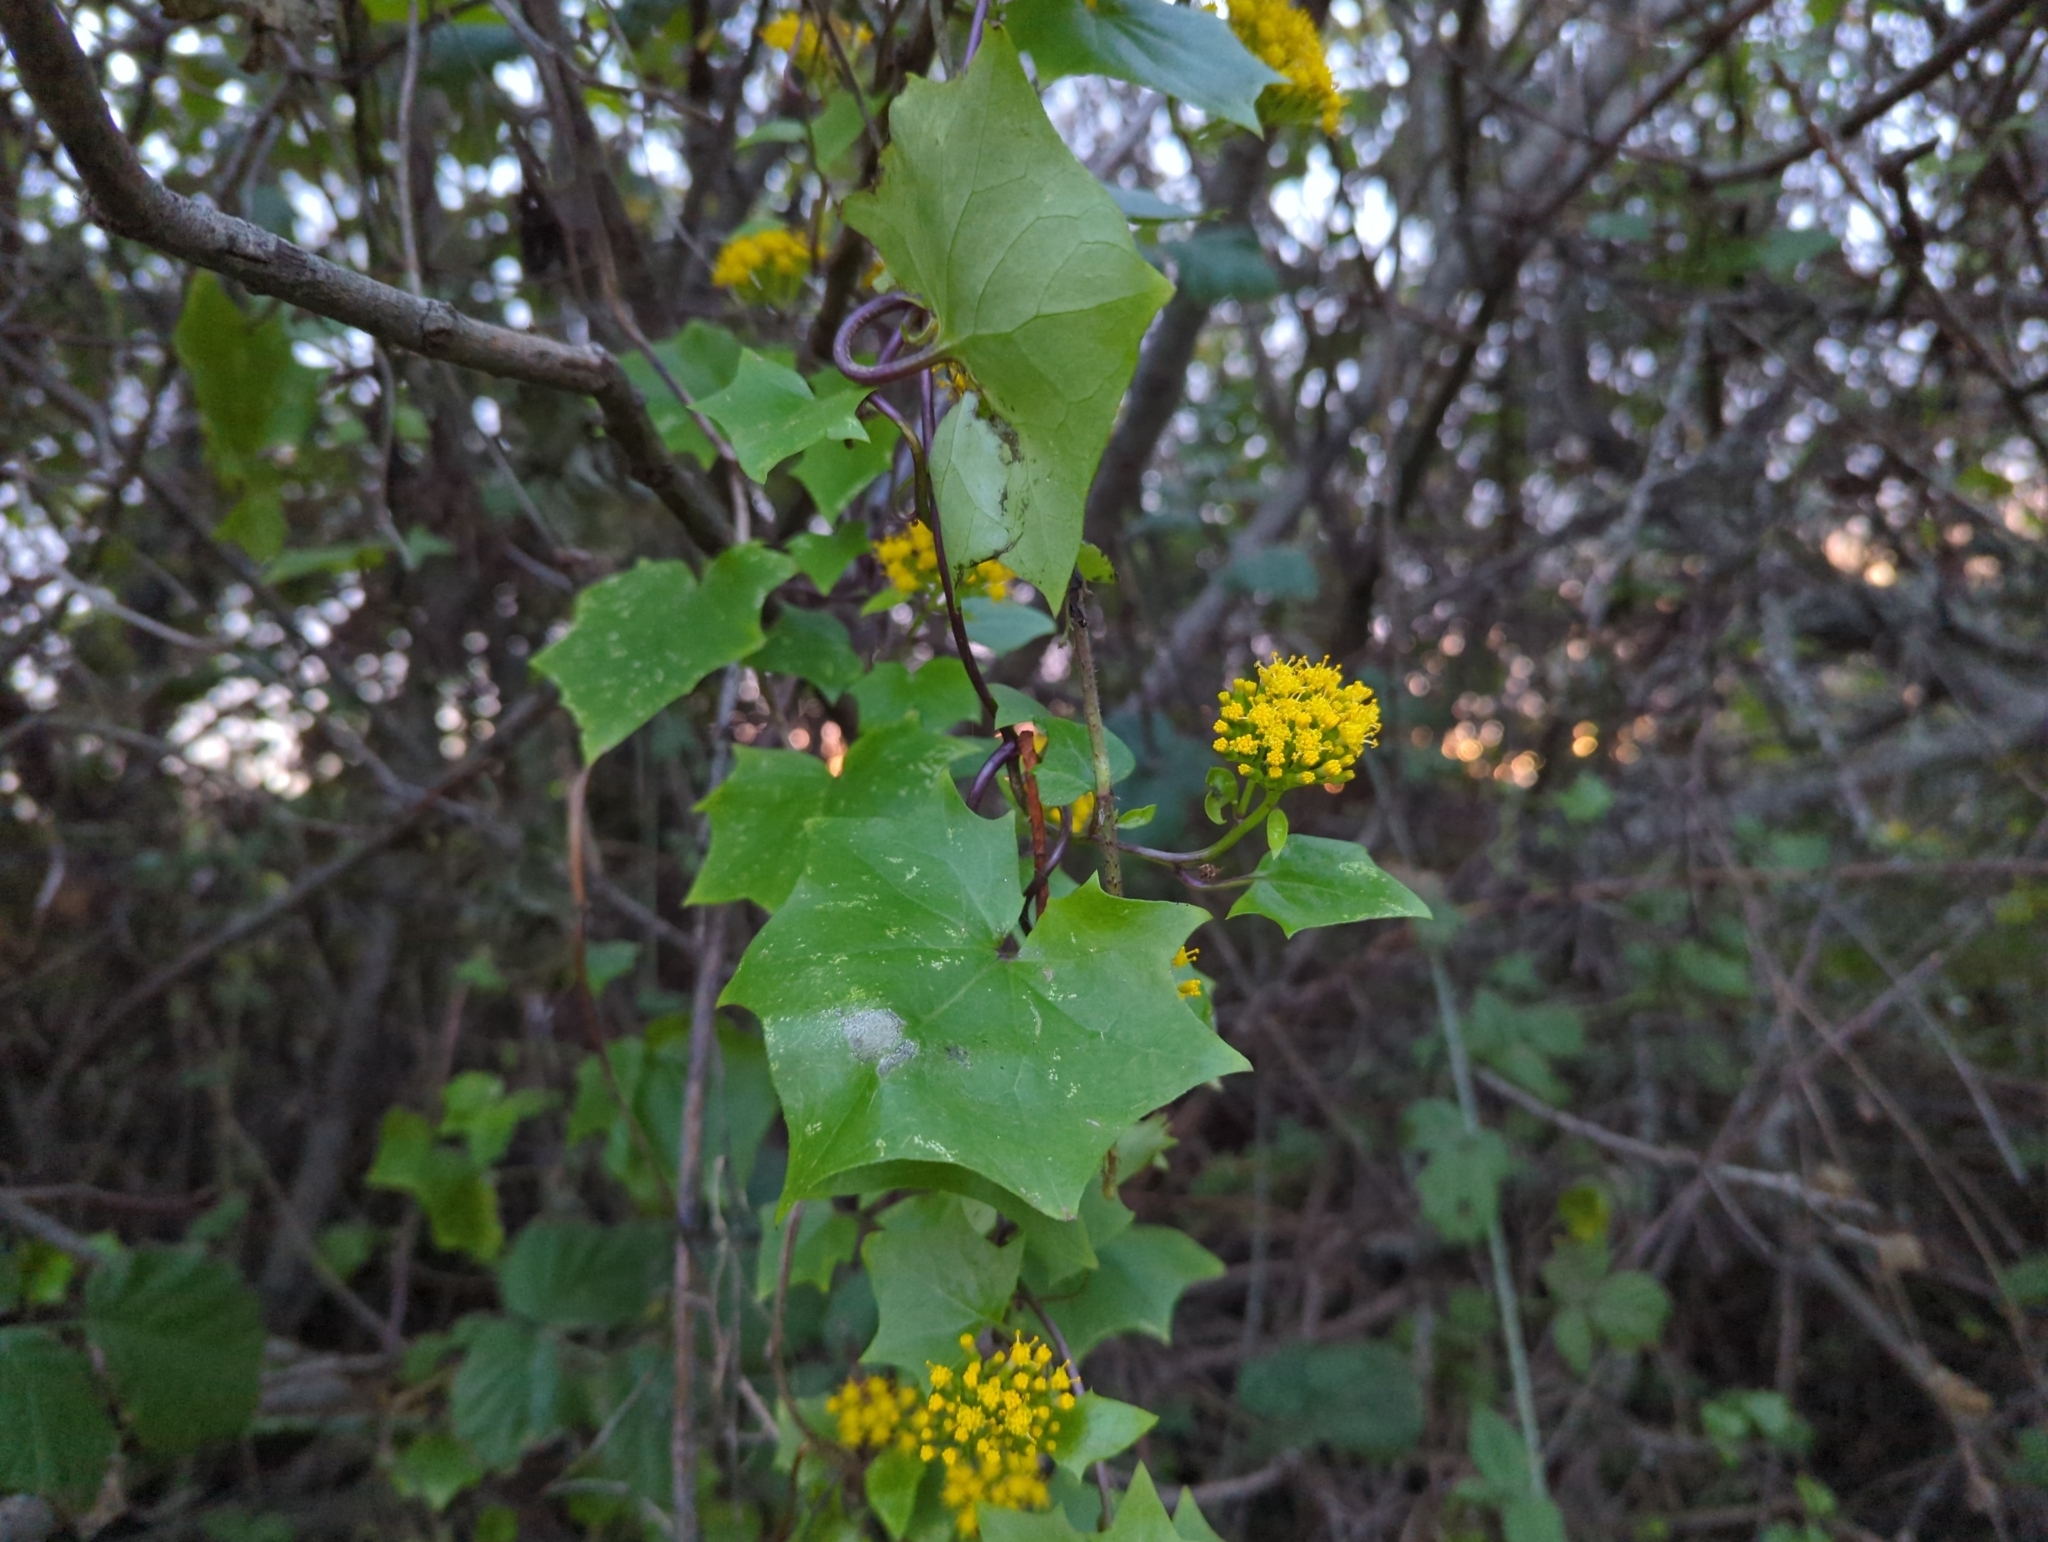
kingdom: Plantae
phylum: Tracheophyta
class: Magnoliopsida
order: Asterales
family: Asteraceae
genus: Delairea
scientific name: Delairea odorata
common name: Cape-ivy
